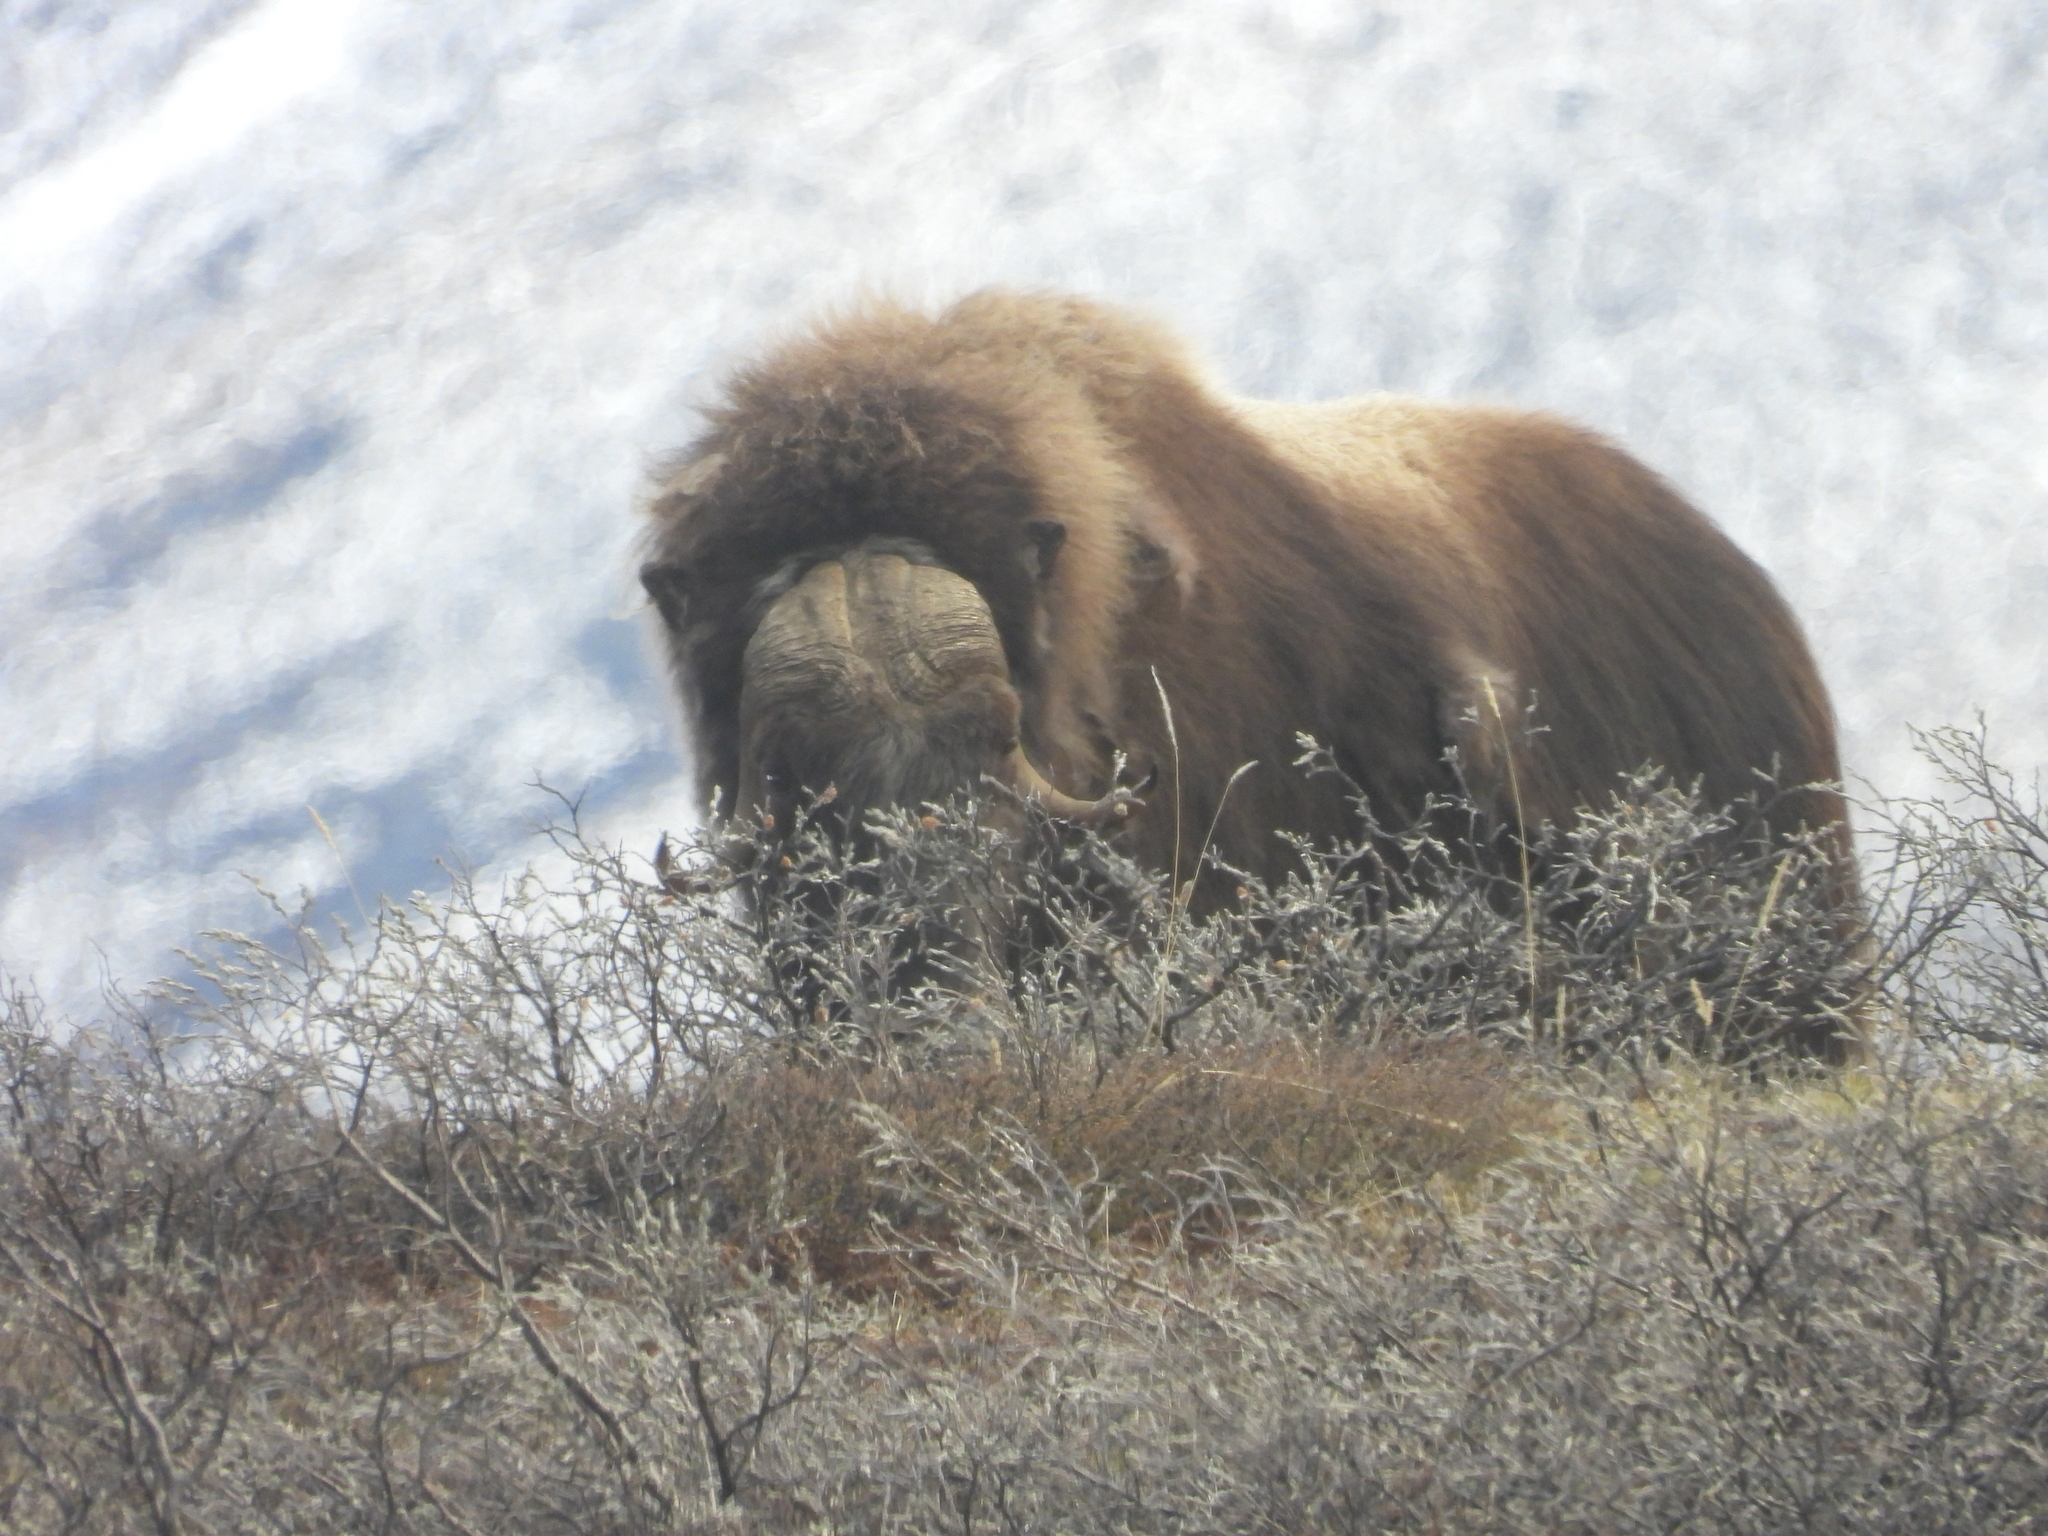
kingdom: Animalia
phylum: Chordata
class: Mammalia
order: Artiodactyla
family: Bovidae
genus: Ovibos
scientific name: Ovibos moschatus
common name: Muskox
